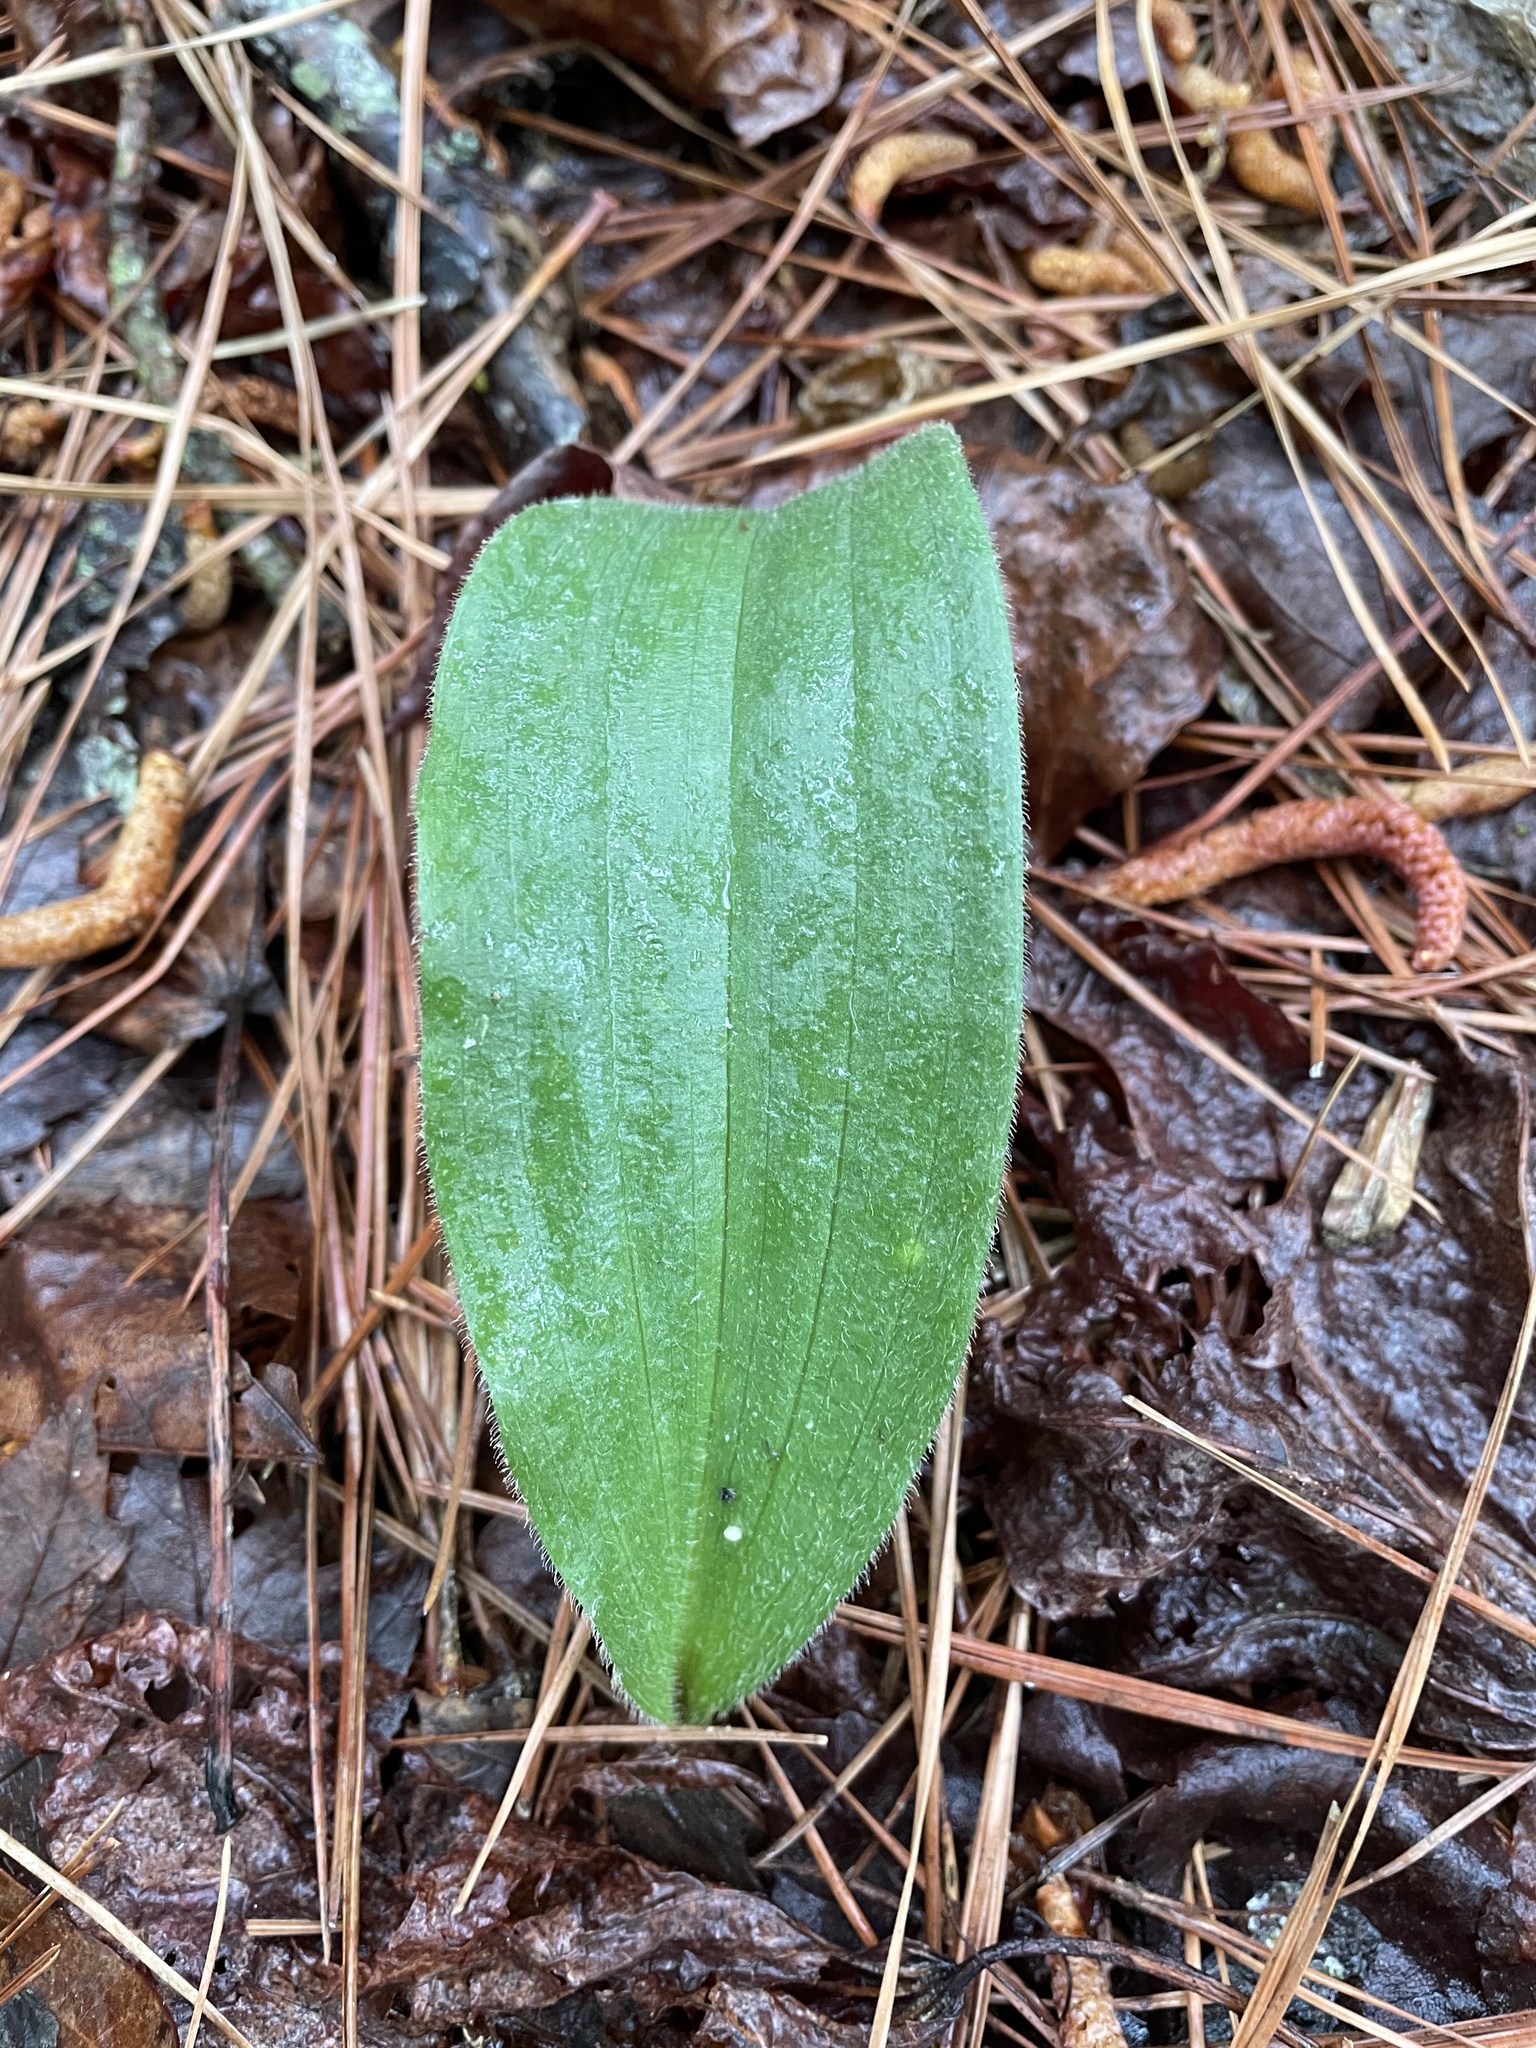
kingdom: Plantae
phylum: Tracheophyta
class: Liliopsida
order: Asparagales
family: Orchidaceae
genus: Cypripedium
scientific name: Cypripedium acaule
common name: Pink lady's-slipper
